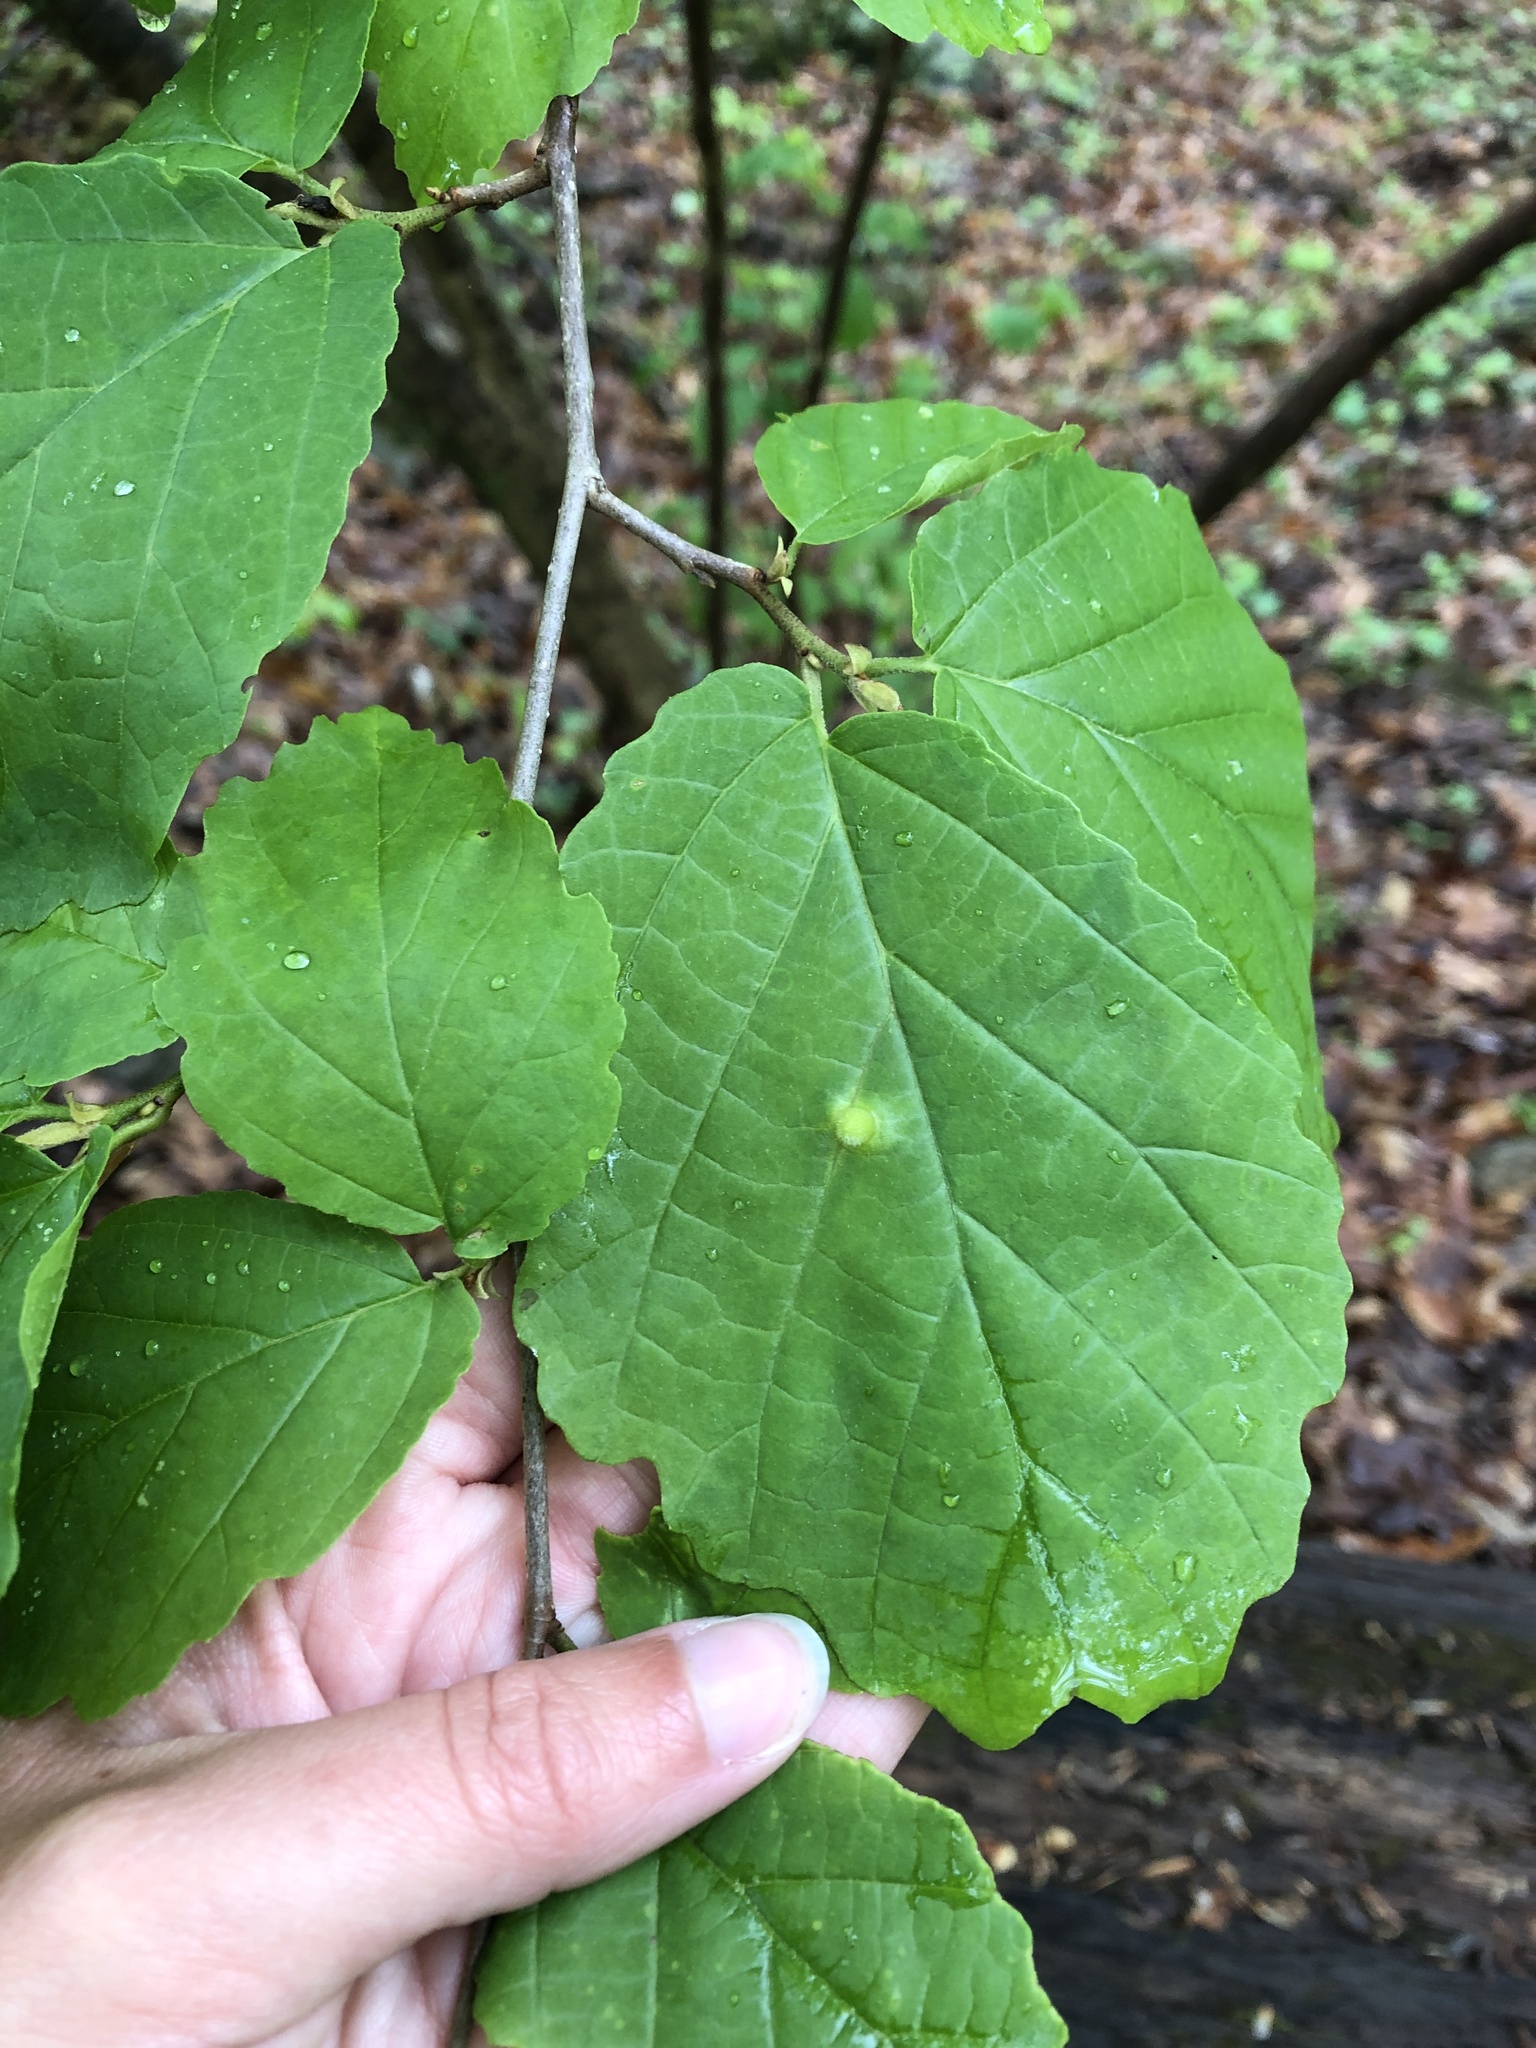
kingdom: Animalia
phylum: Arthropoda
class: Insecta
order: Hemiptera
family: Aphididae
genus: Hormaphis
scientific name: Hormaphis hamamelidis
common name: Witch-hazel cone gall aphid
